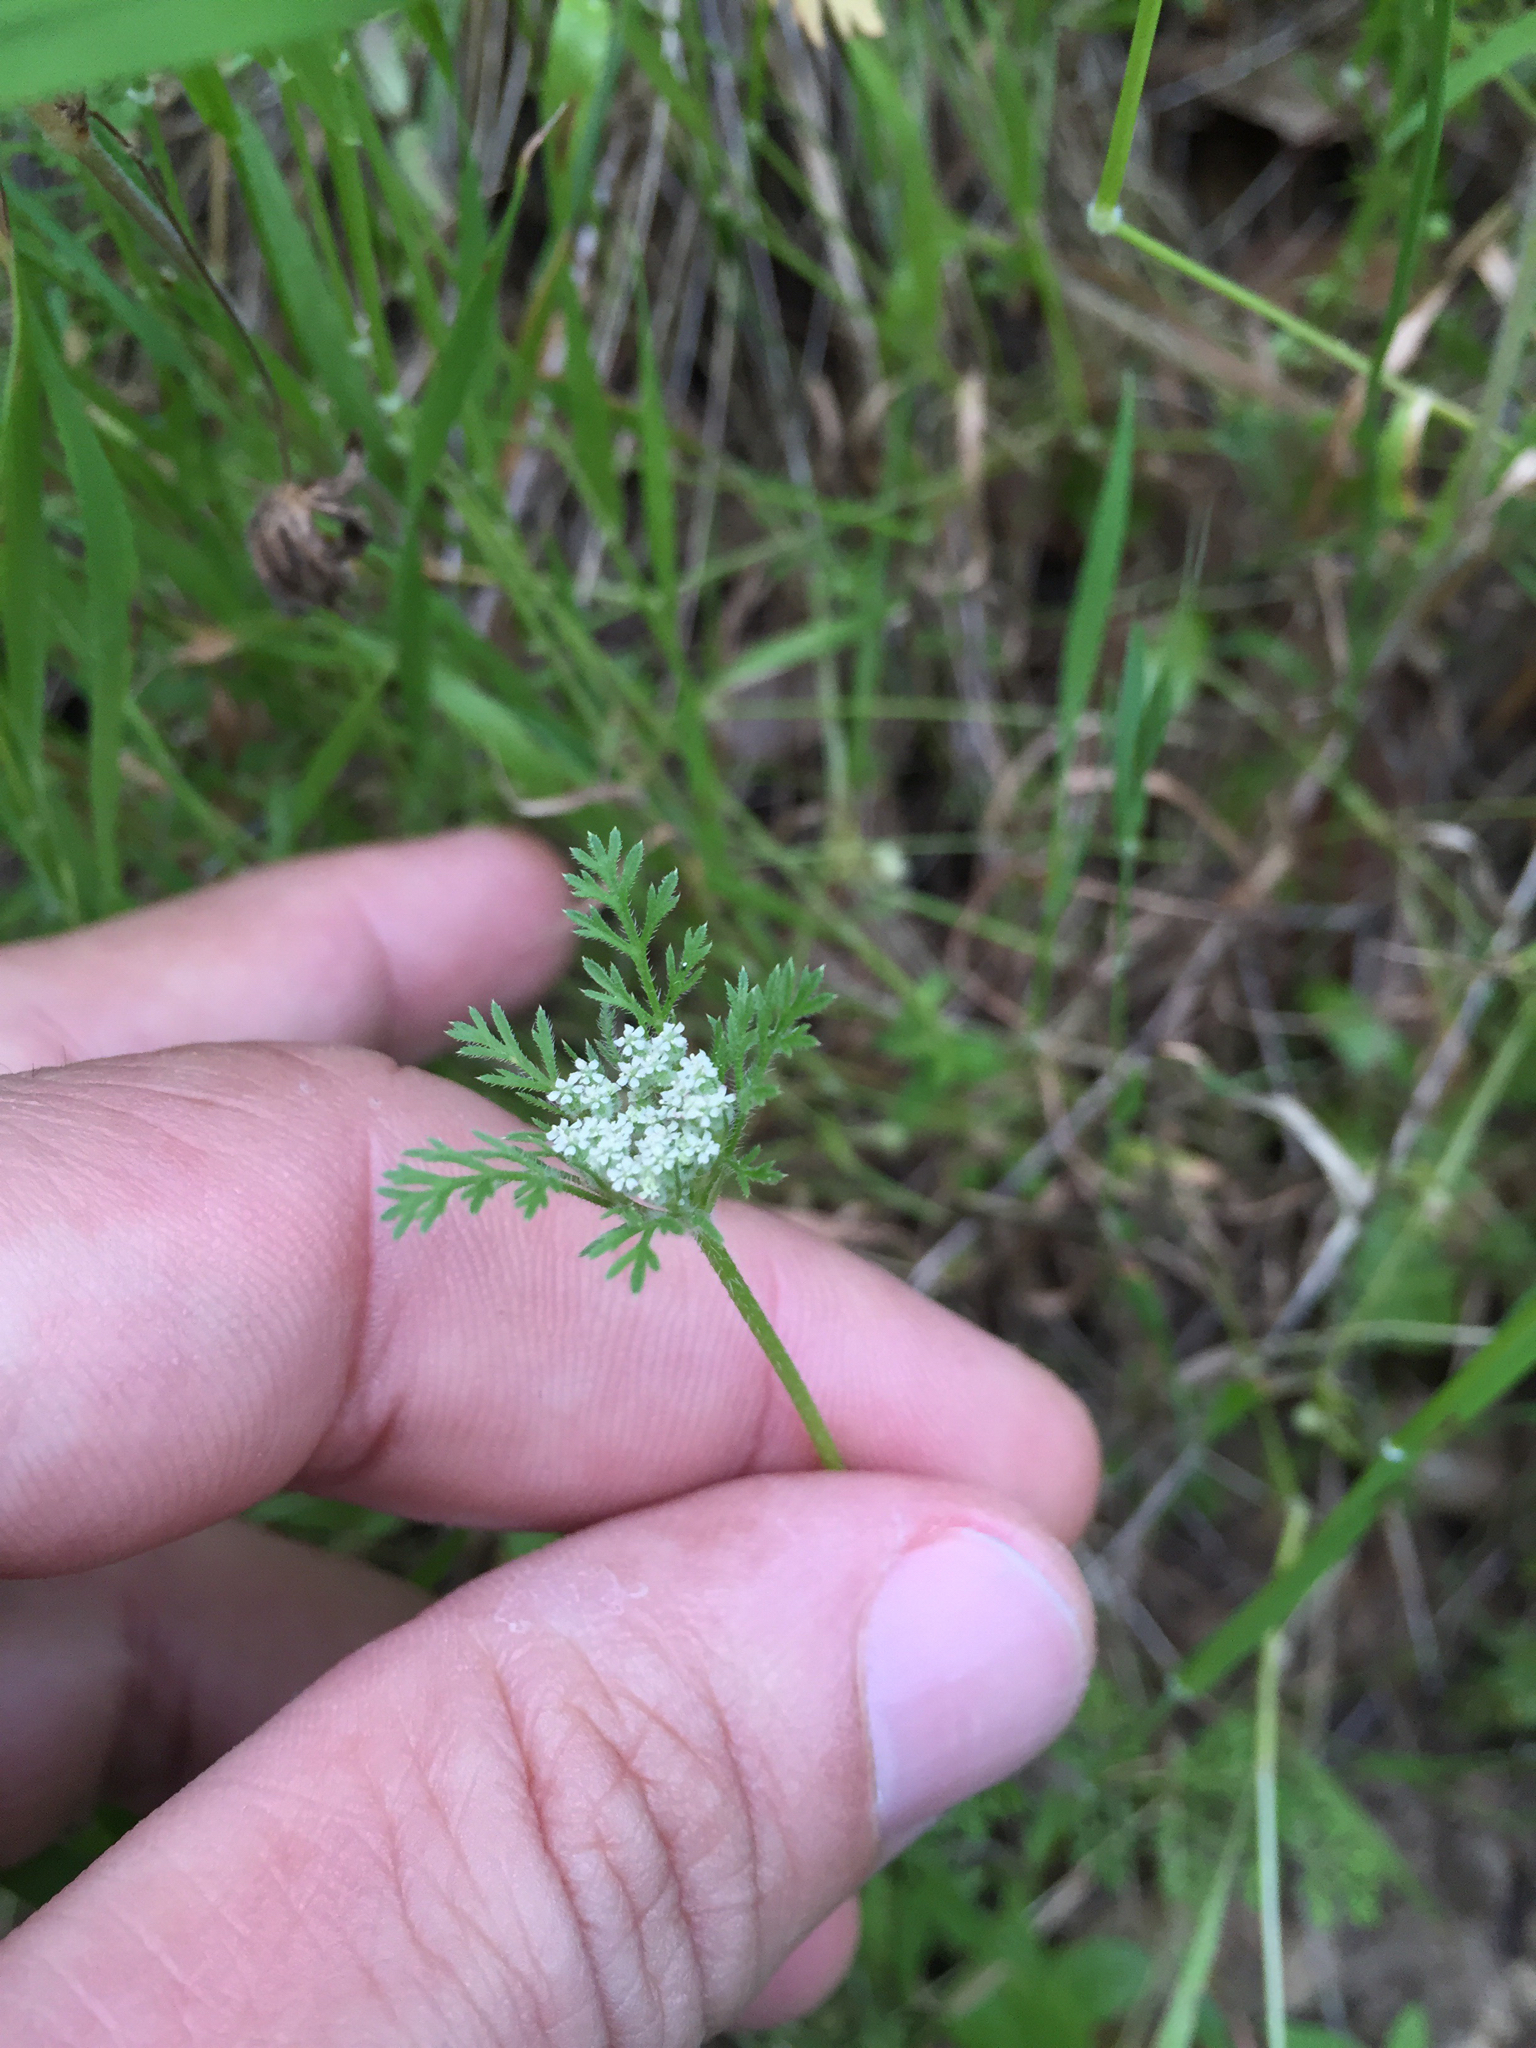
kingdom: Plantae
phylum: Tracheophyta
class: Magnoliopsida
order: Apiales
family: Apiaceae
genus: Daucus
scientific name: Daucus pusillus
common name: Southwest wild carrot
